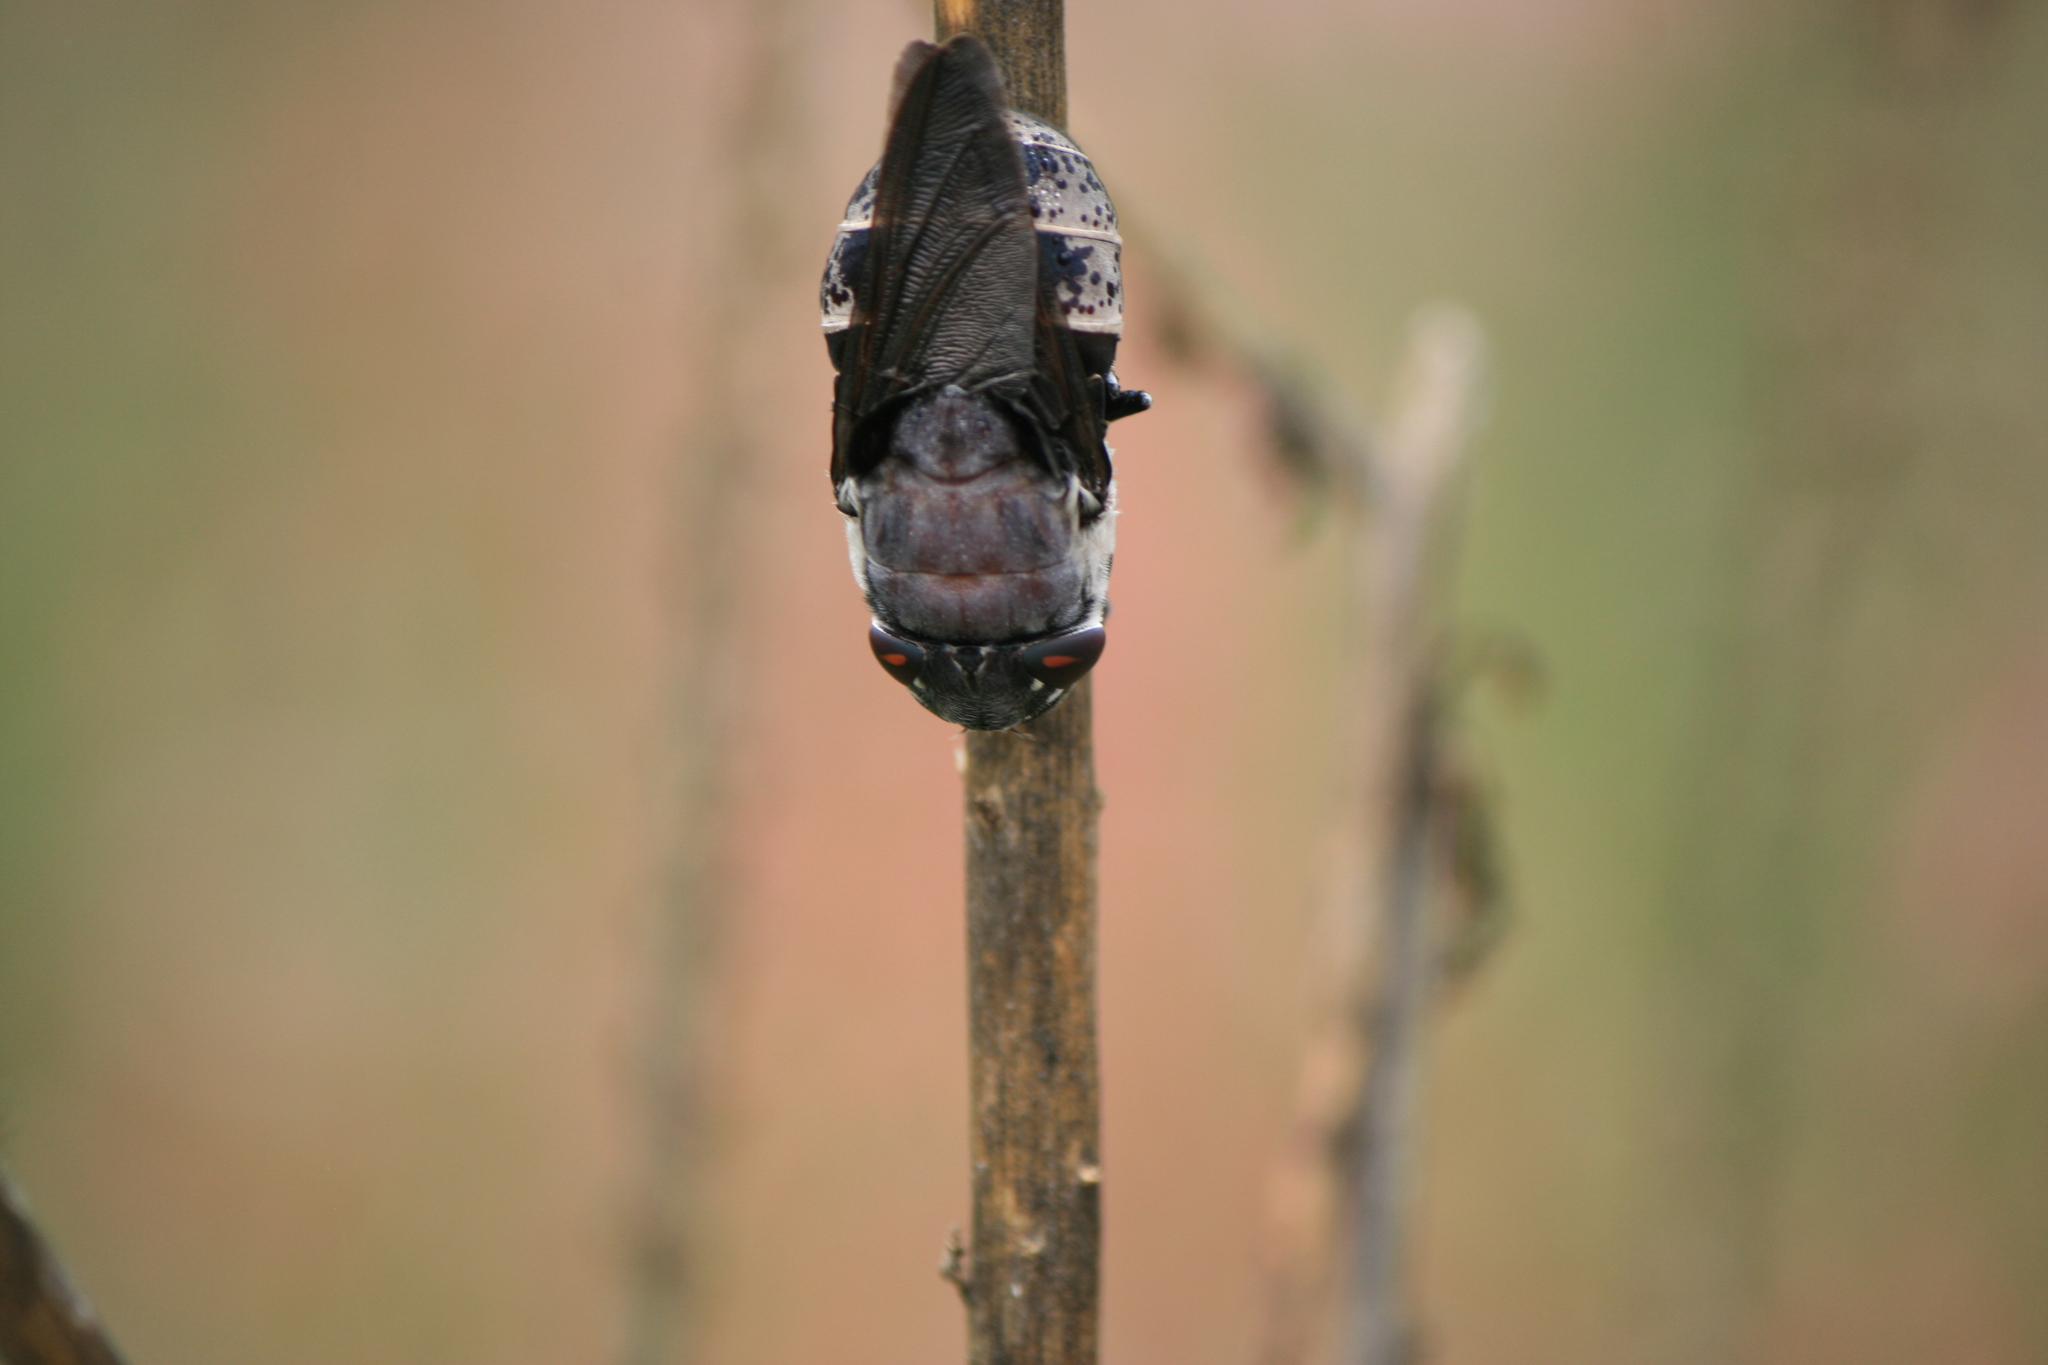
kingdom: Animalia
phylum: Arthropoda
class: Insecta
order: Diptera
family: Oestridae
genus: Cuterebra
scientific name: Cuterebra buccata
